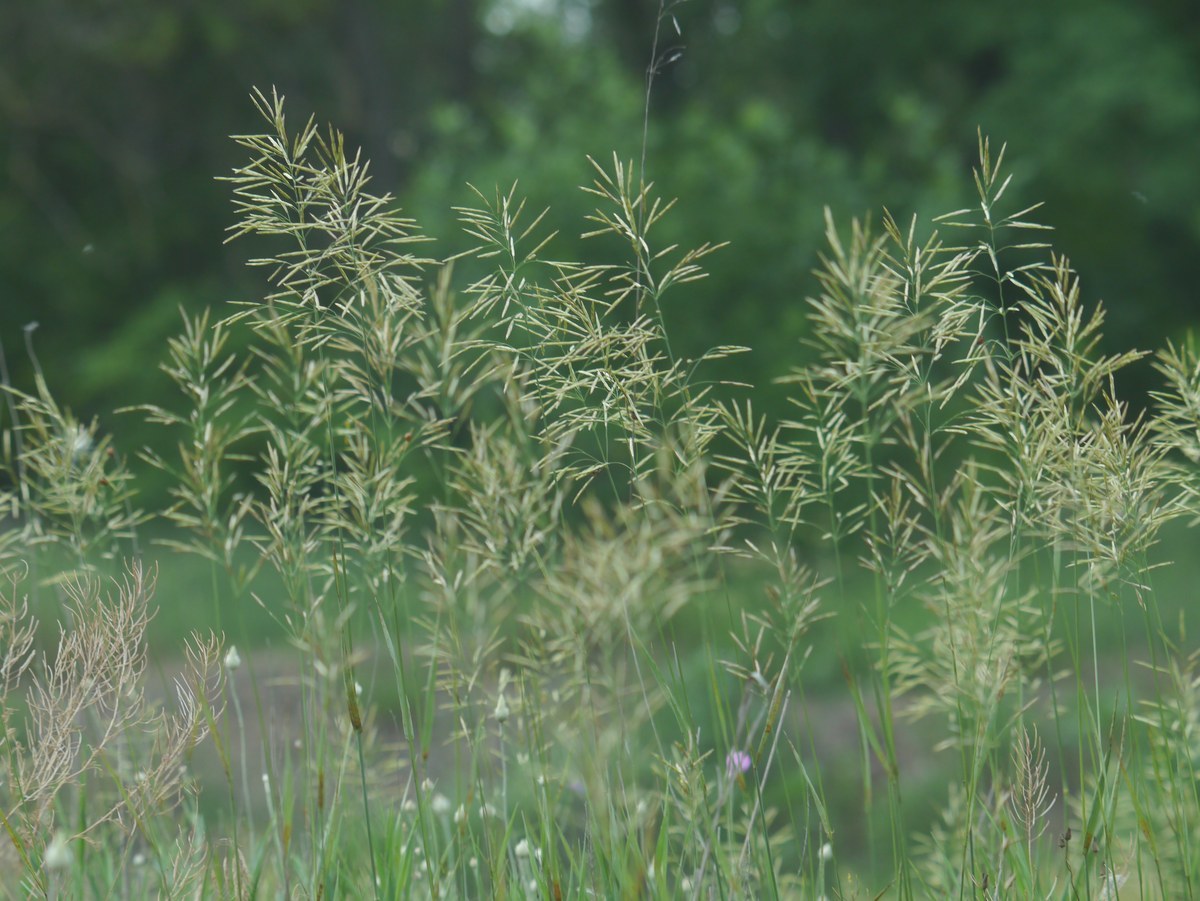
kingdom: Plantae
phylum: Tracheophyta
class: Liliopsida
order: Poales
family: Poaceae
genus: Bromus
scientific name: Bromus inermis
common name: Smooth brome
